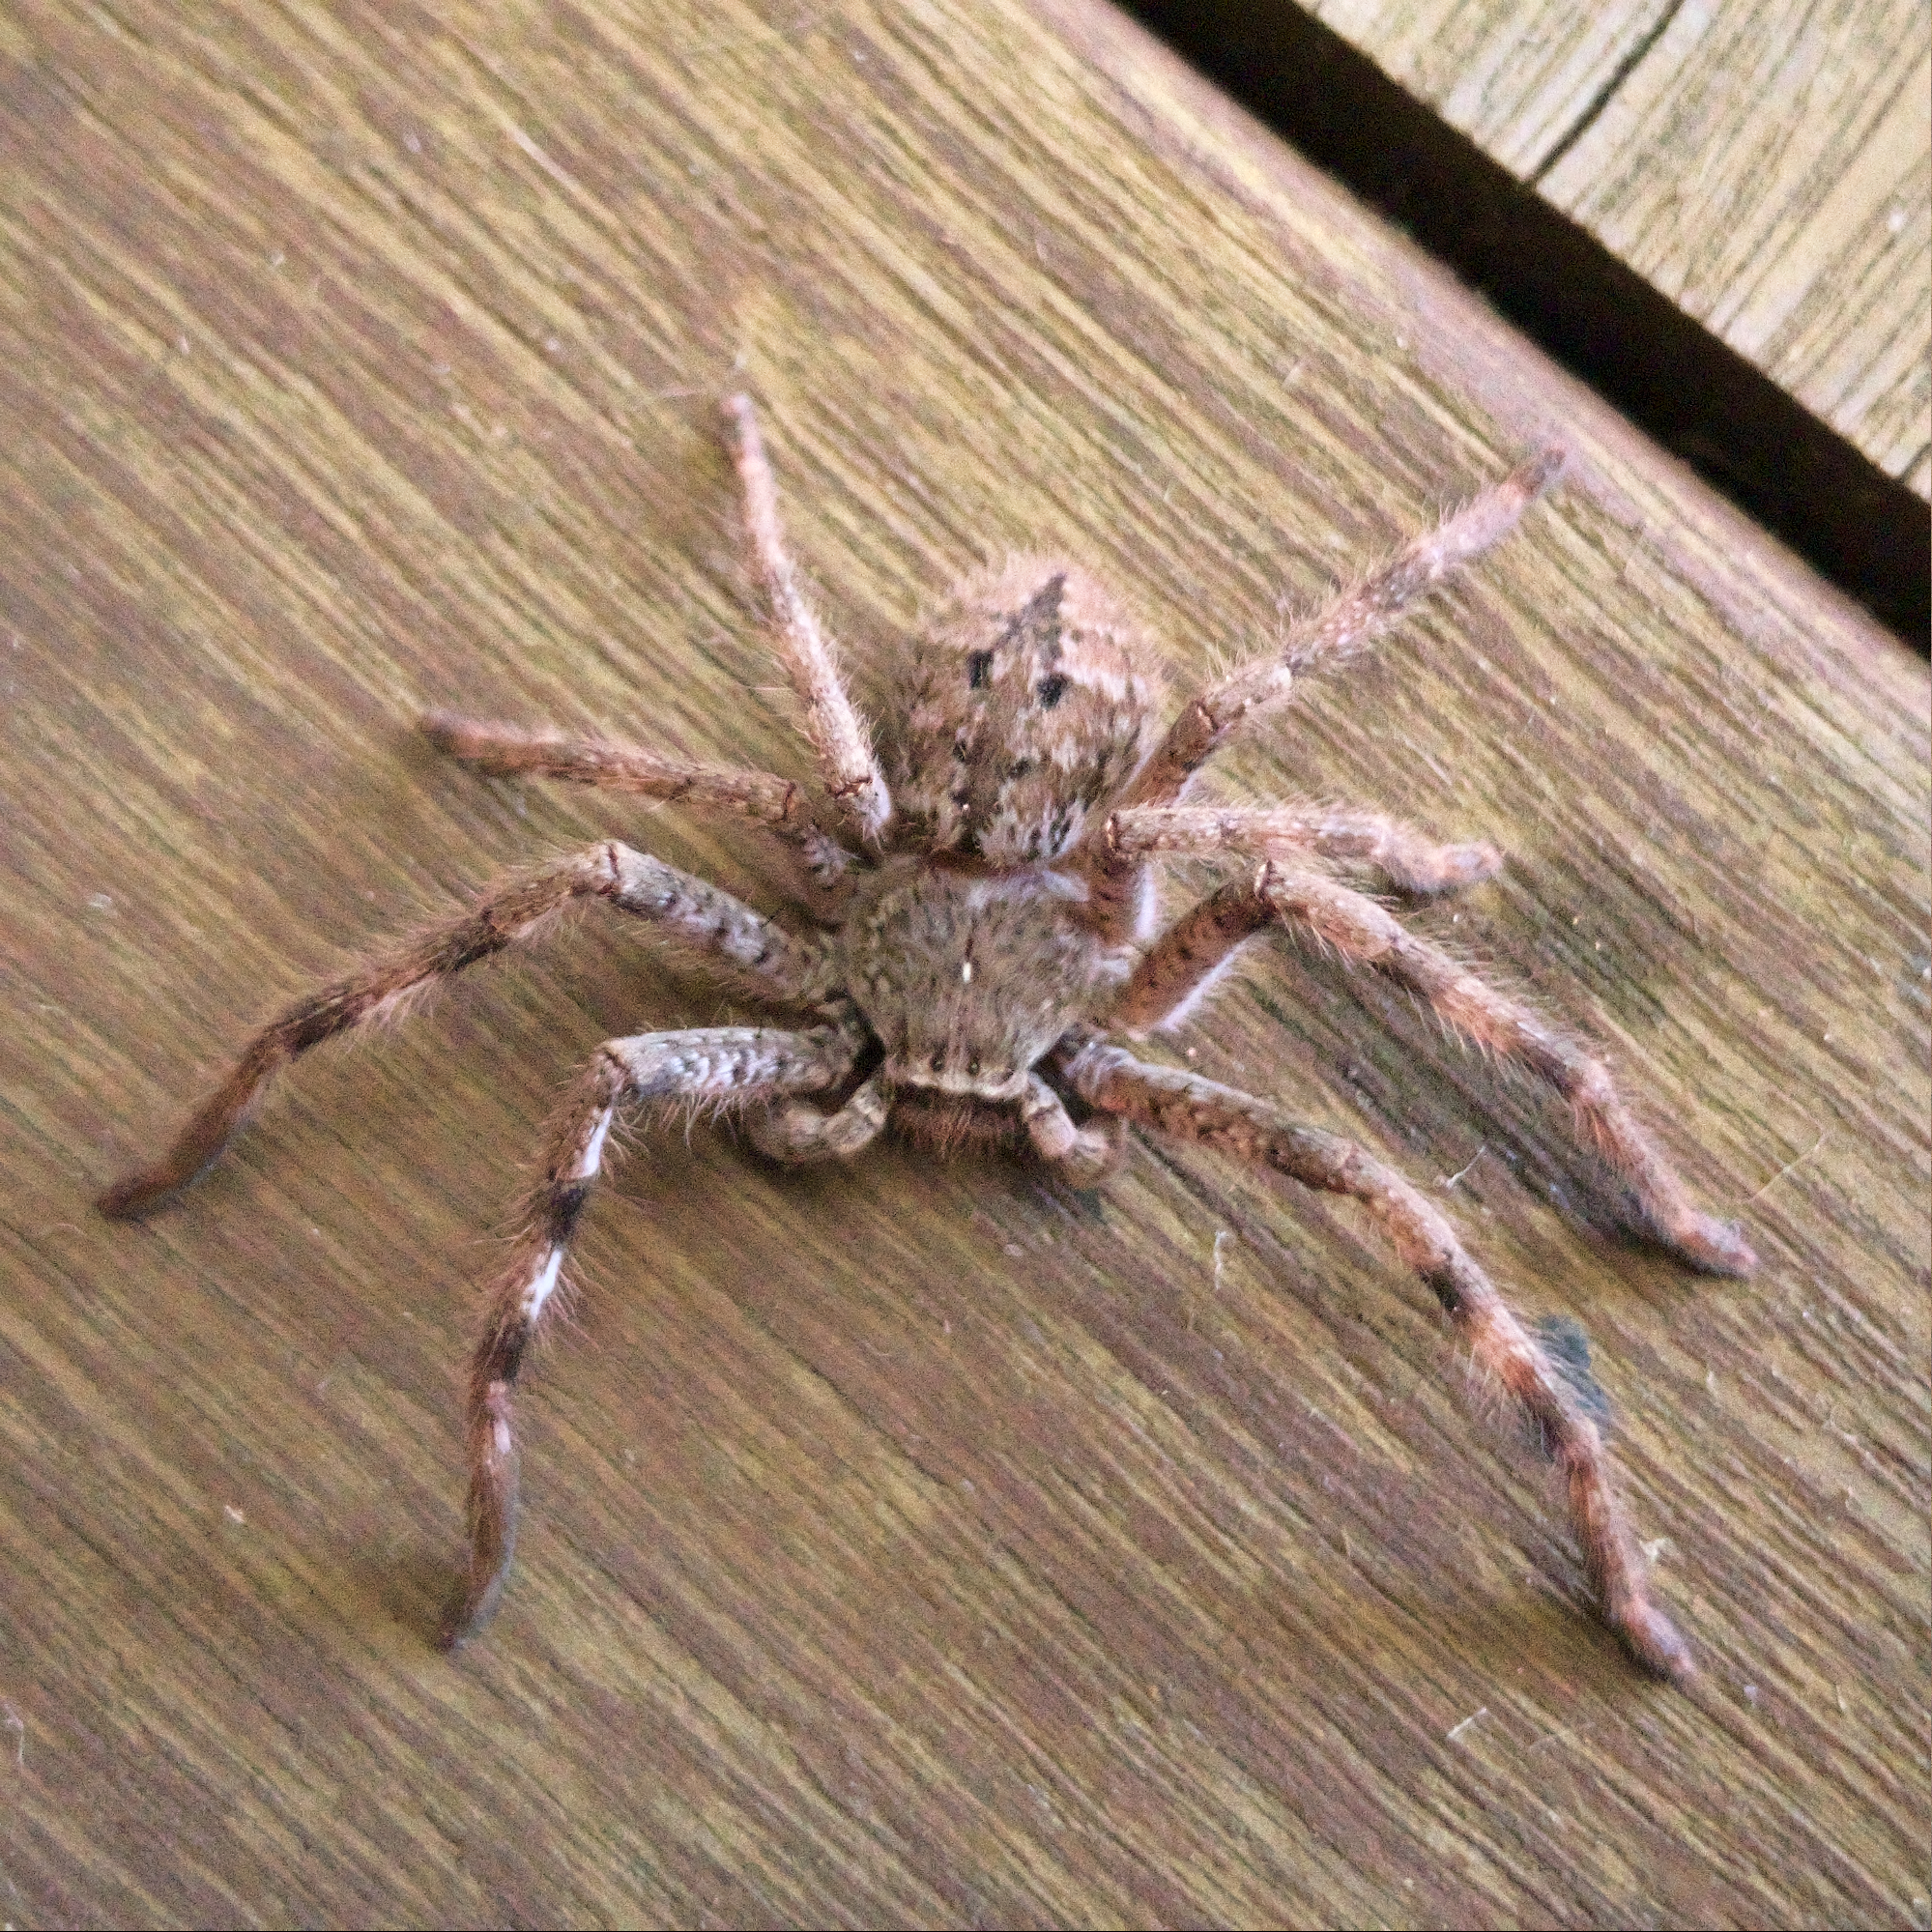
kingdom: Animalia
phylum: Arthropoda
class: Arachnida
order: Araneae
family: Sparassidae
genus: Isopedella
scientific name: Isopedella victorialis
